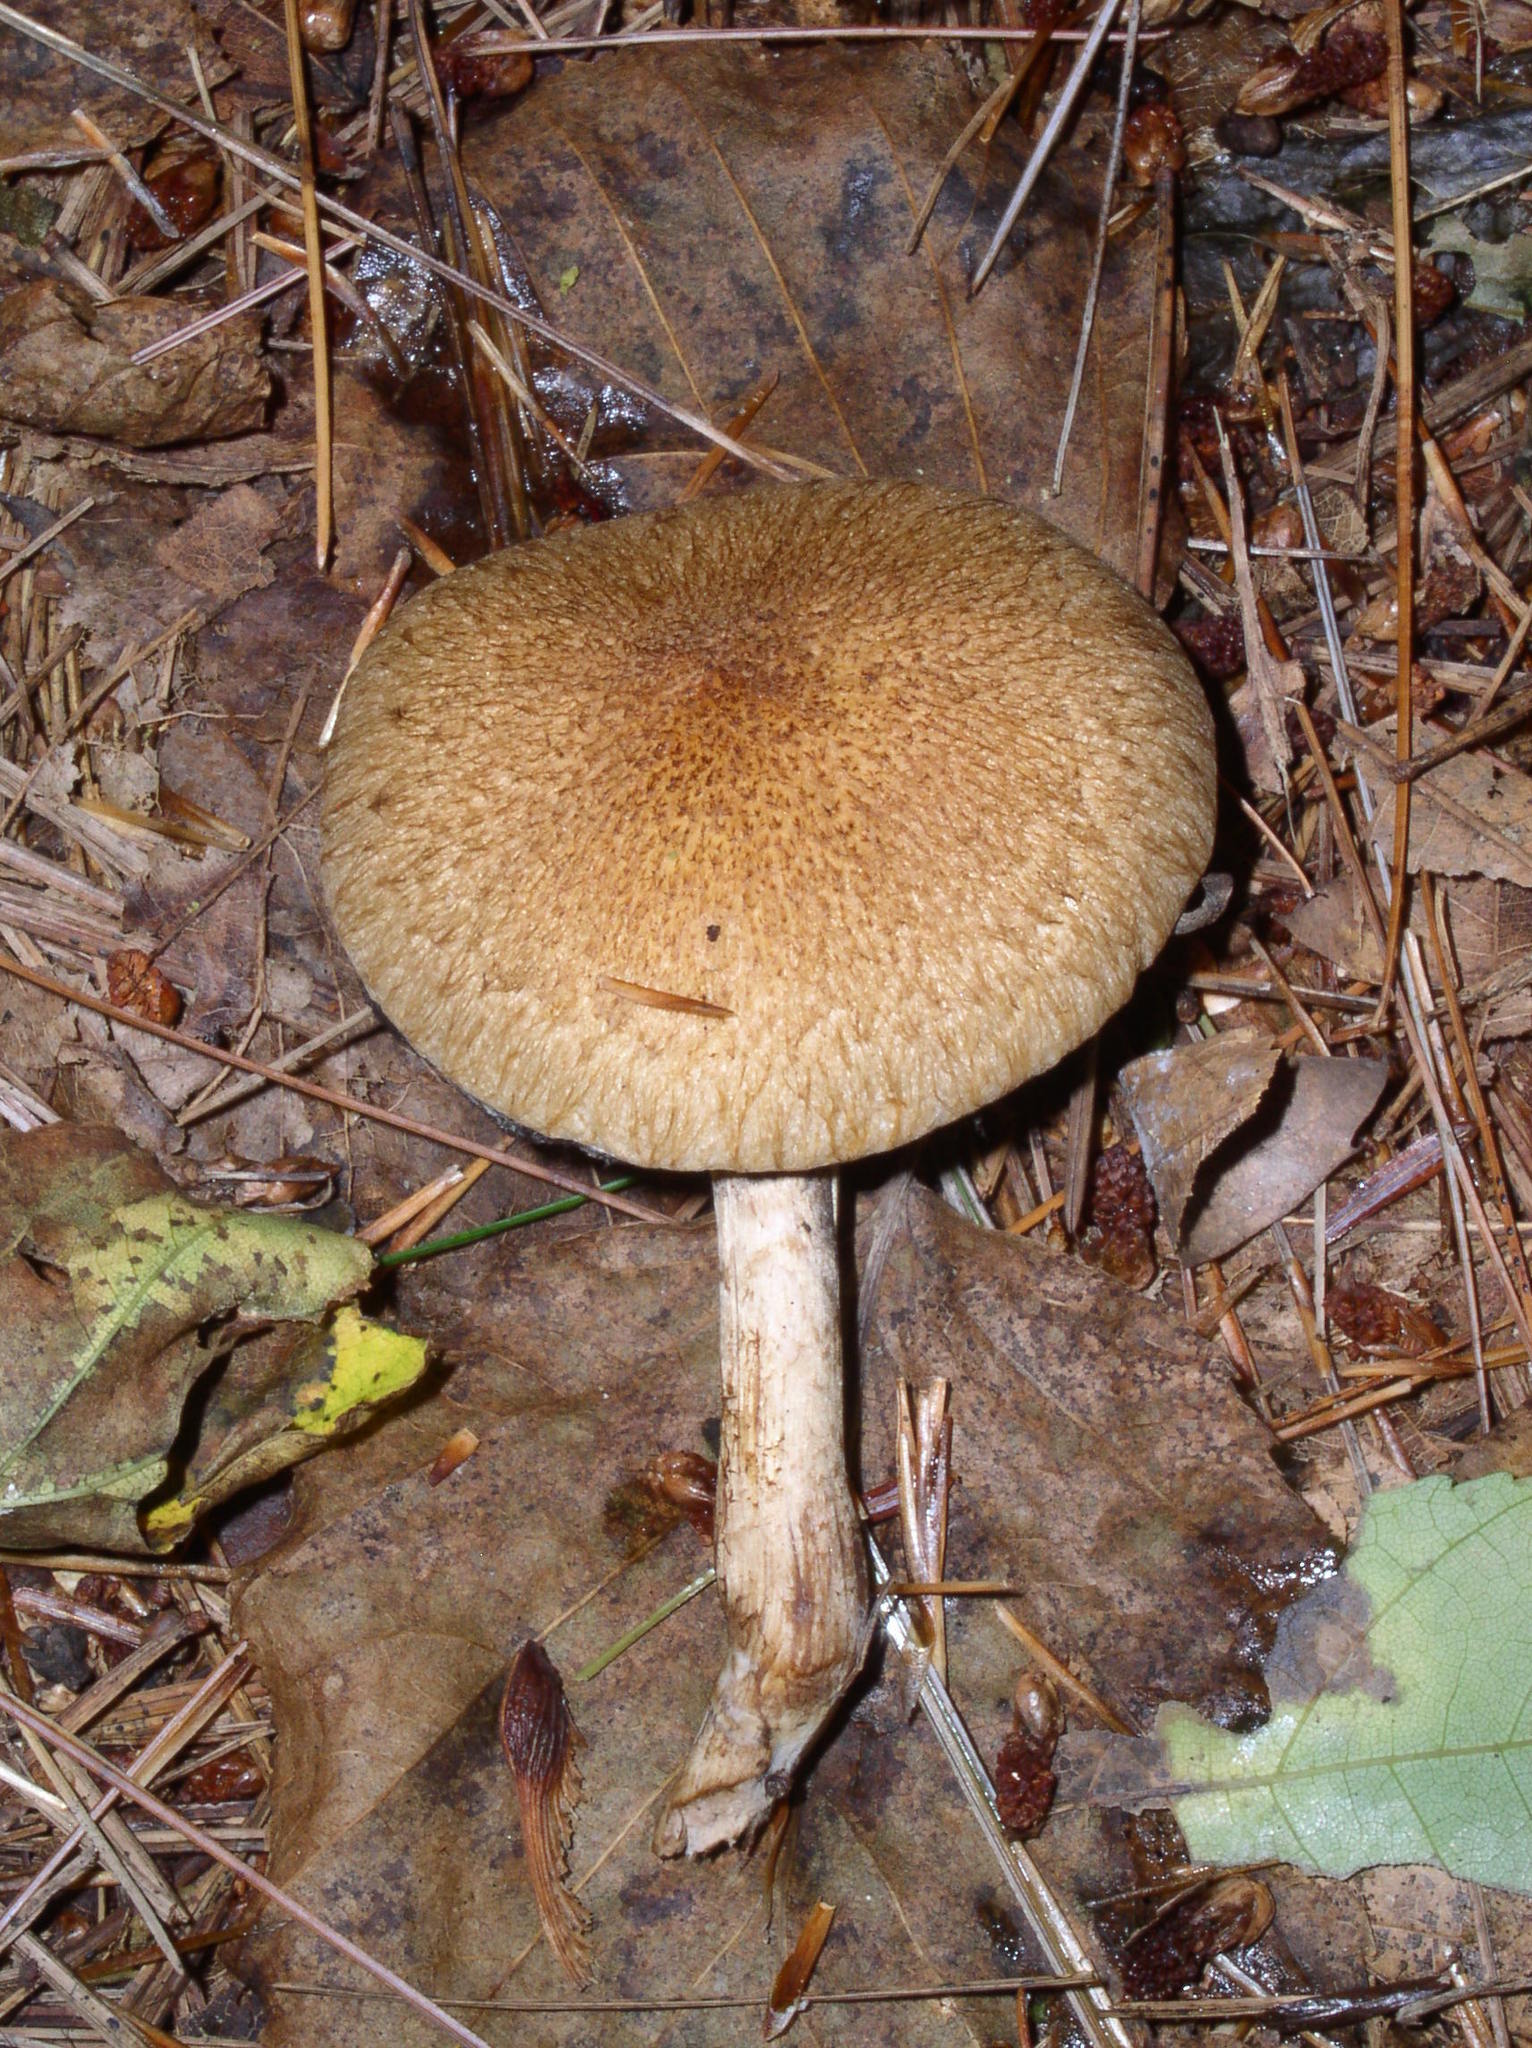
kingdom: Fungi
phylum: Basidiomycota
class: Agaricomycetes
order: Agaricales
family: Psathyrellaceae
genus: Lacrymaria
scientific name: Lacrymaria lacrymabunda
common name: Weeping widow
